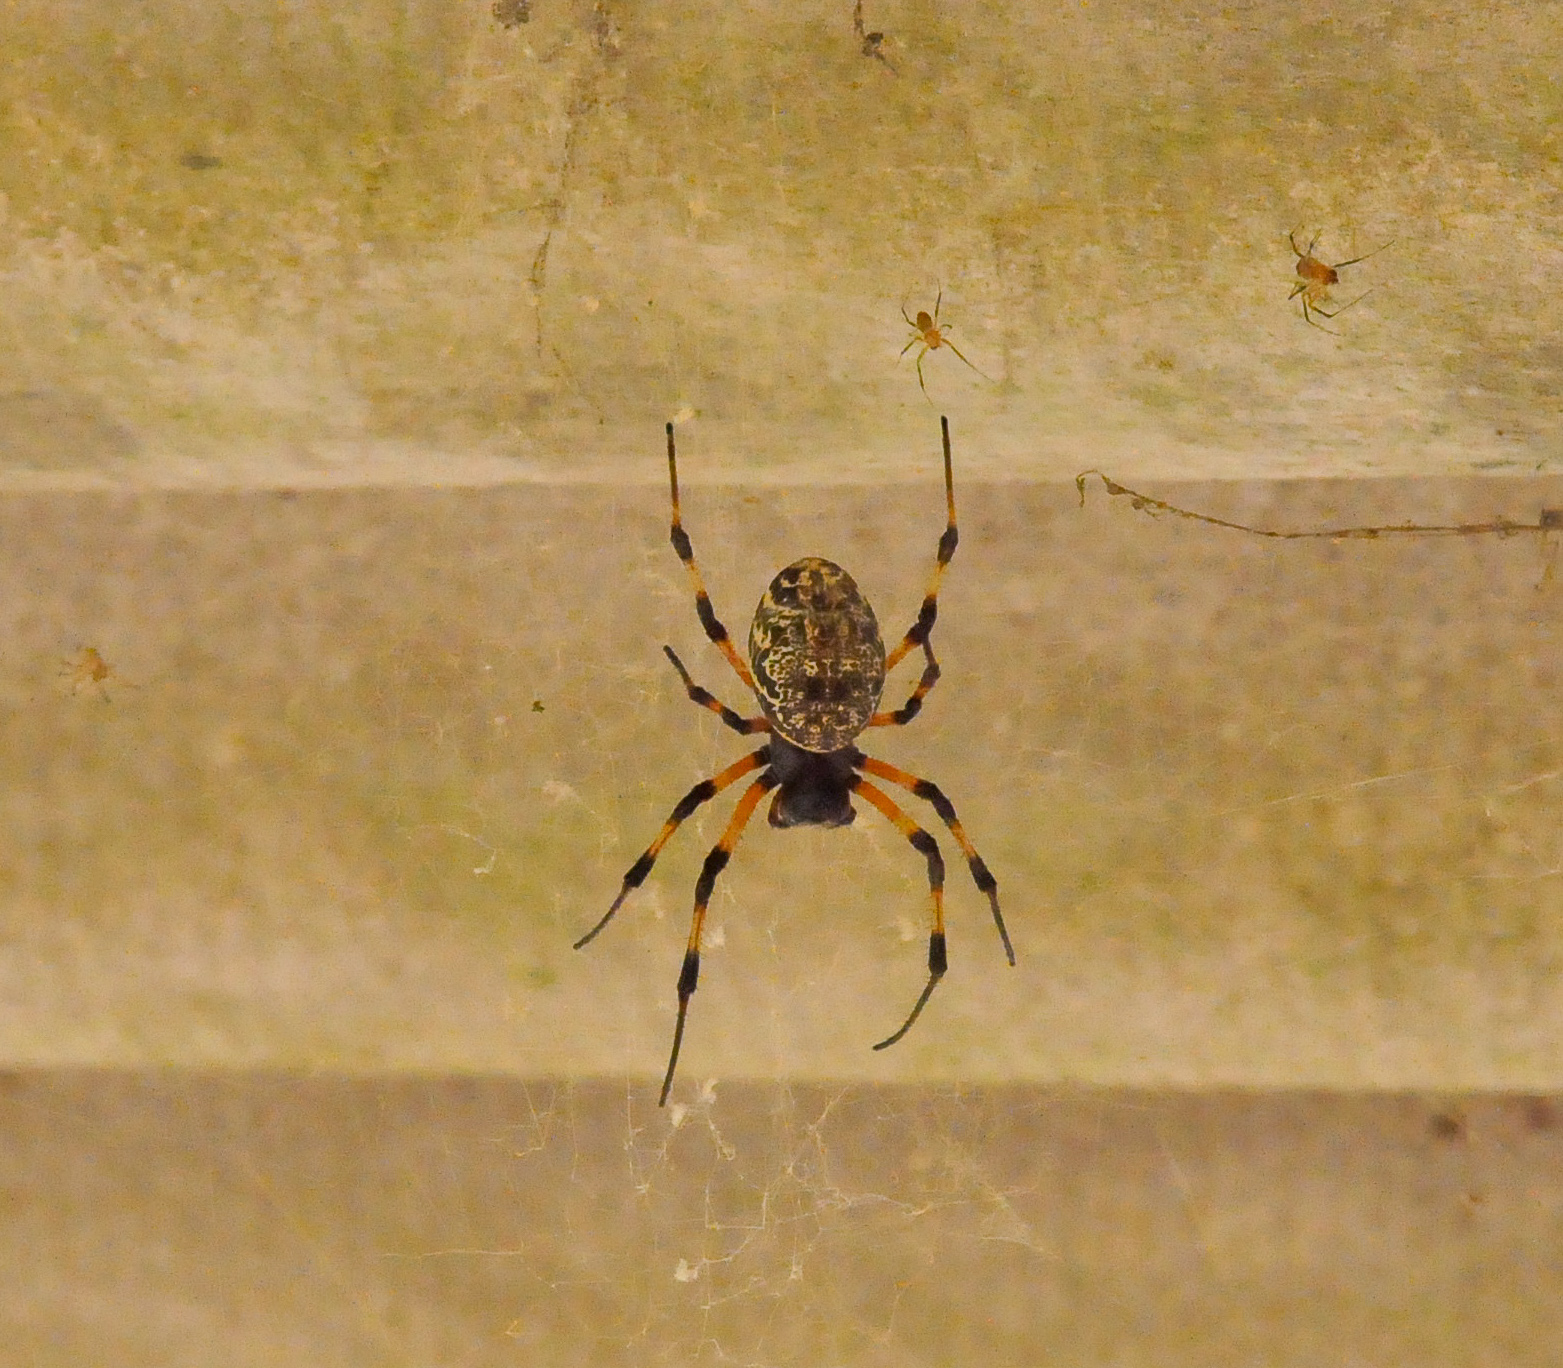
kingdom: Animalia
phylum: Arthropoda
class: Arachnida
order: Araneae
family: Araneidae
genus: Nephilingis
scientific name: Nephilingis cruentata
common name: African hermit spider
